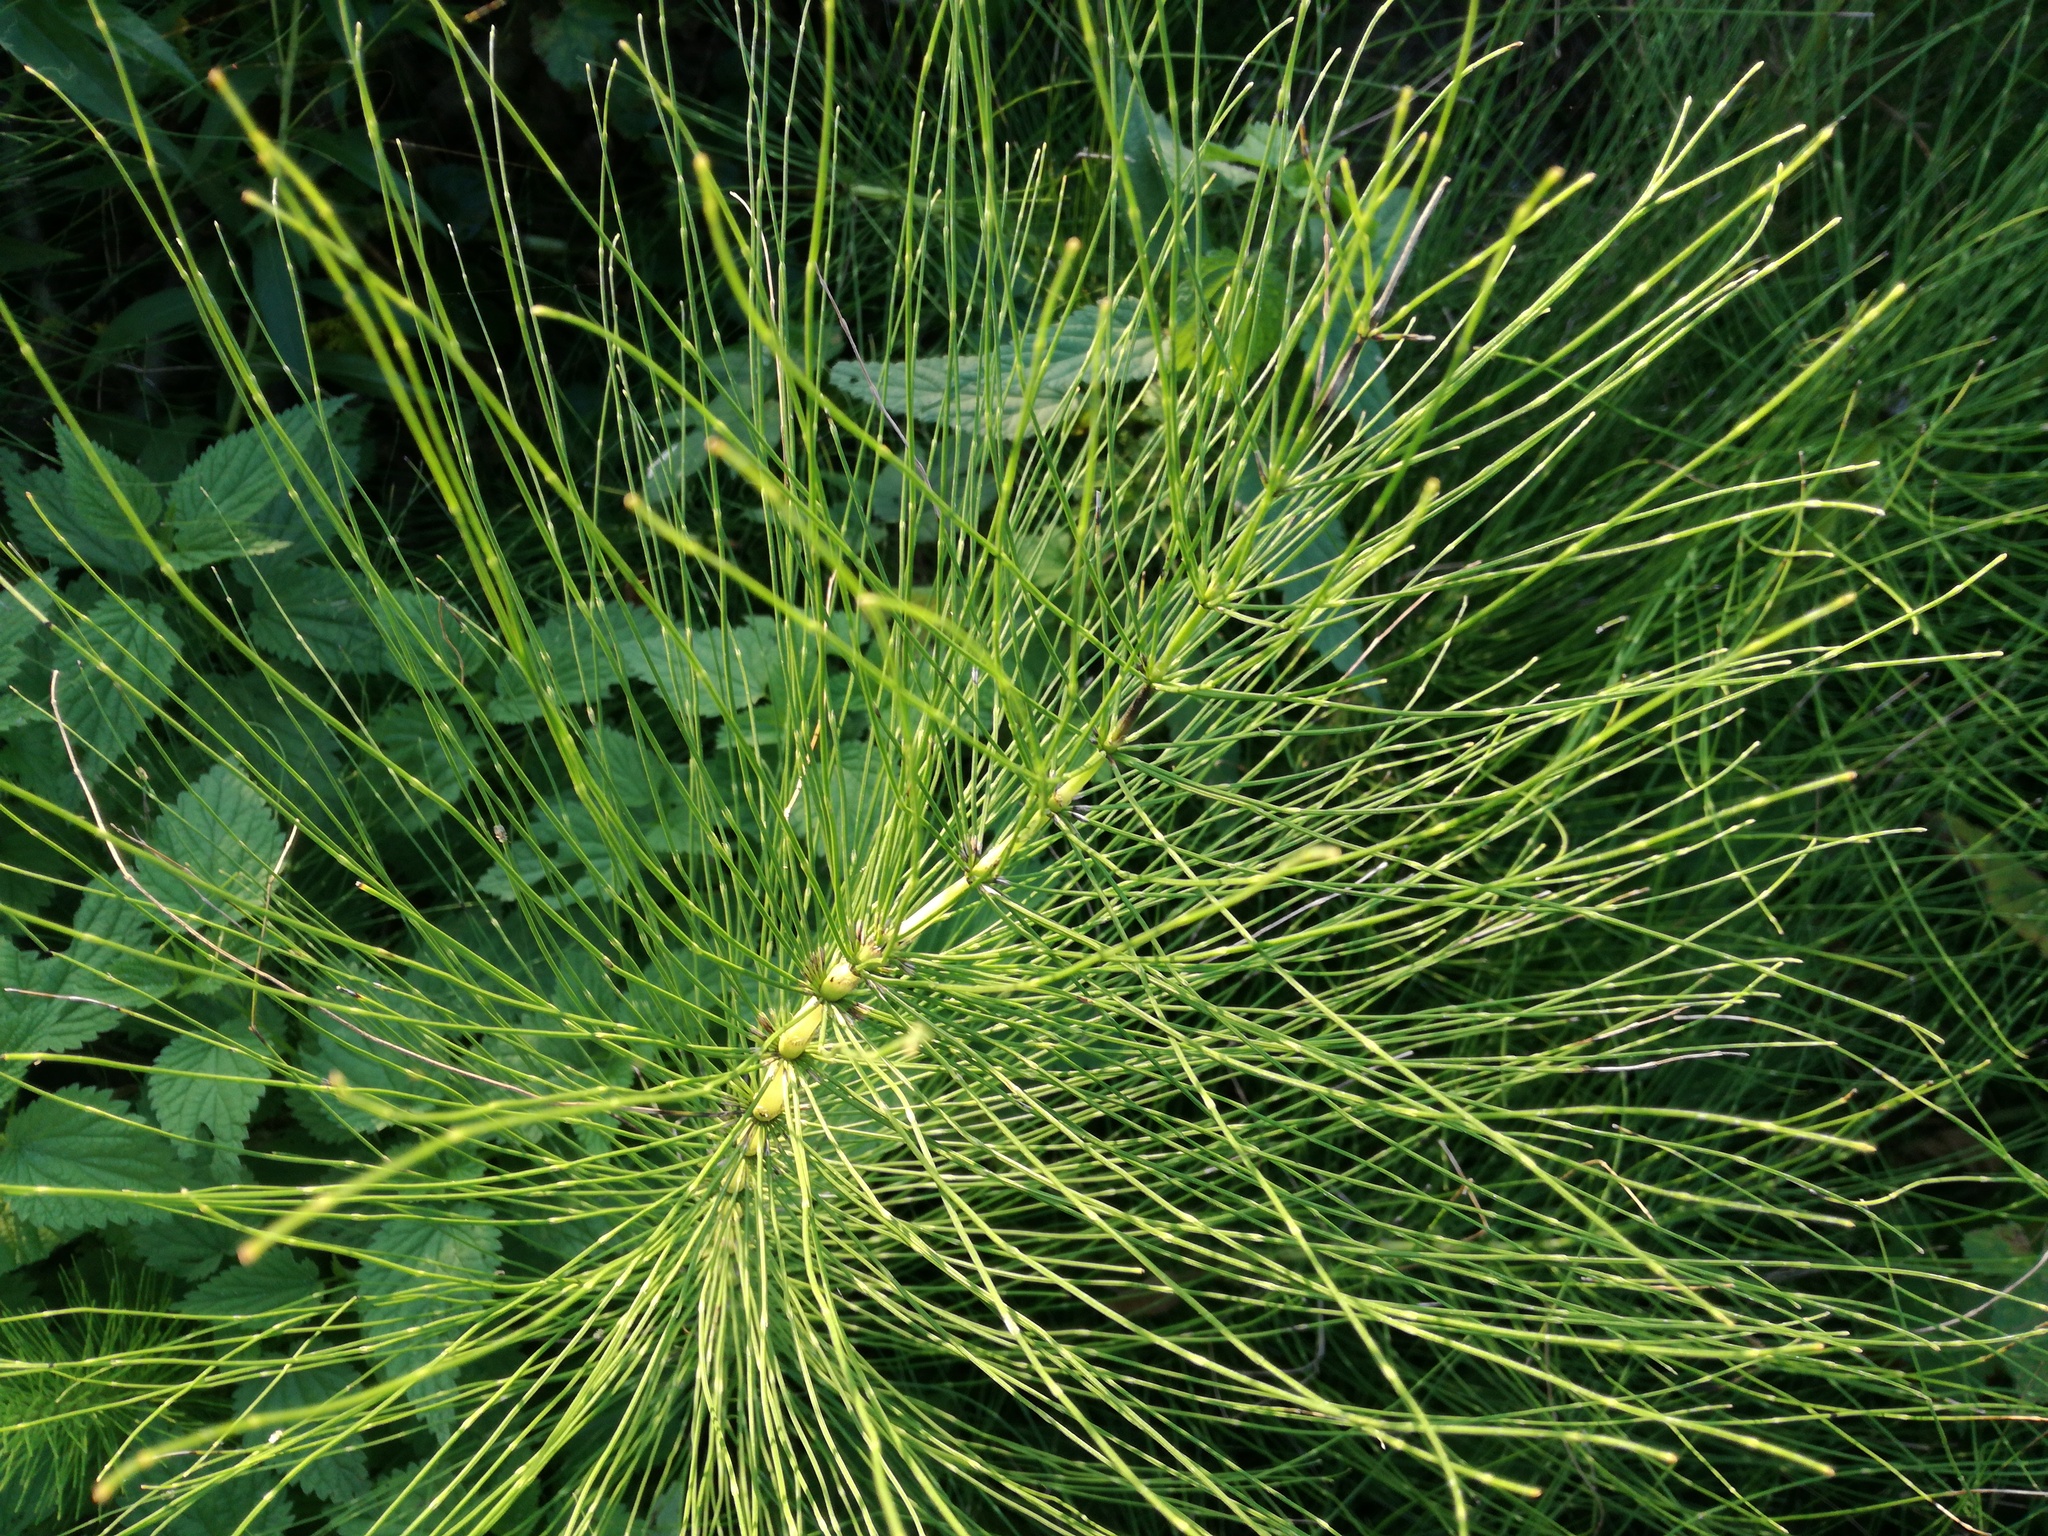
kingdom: Plantae
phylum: Tracheophyta
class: Polypodiopsida
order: Equisetales
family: Equisetaceae
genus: Equisetum
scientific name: Equisetum telmateia
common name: Great horsetail
